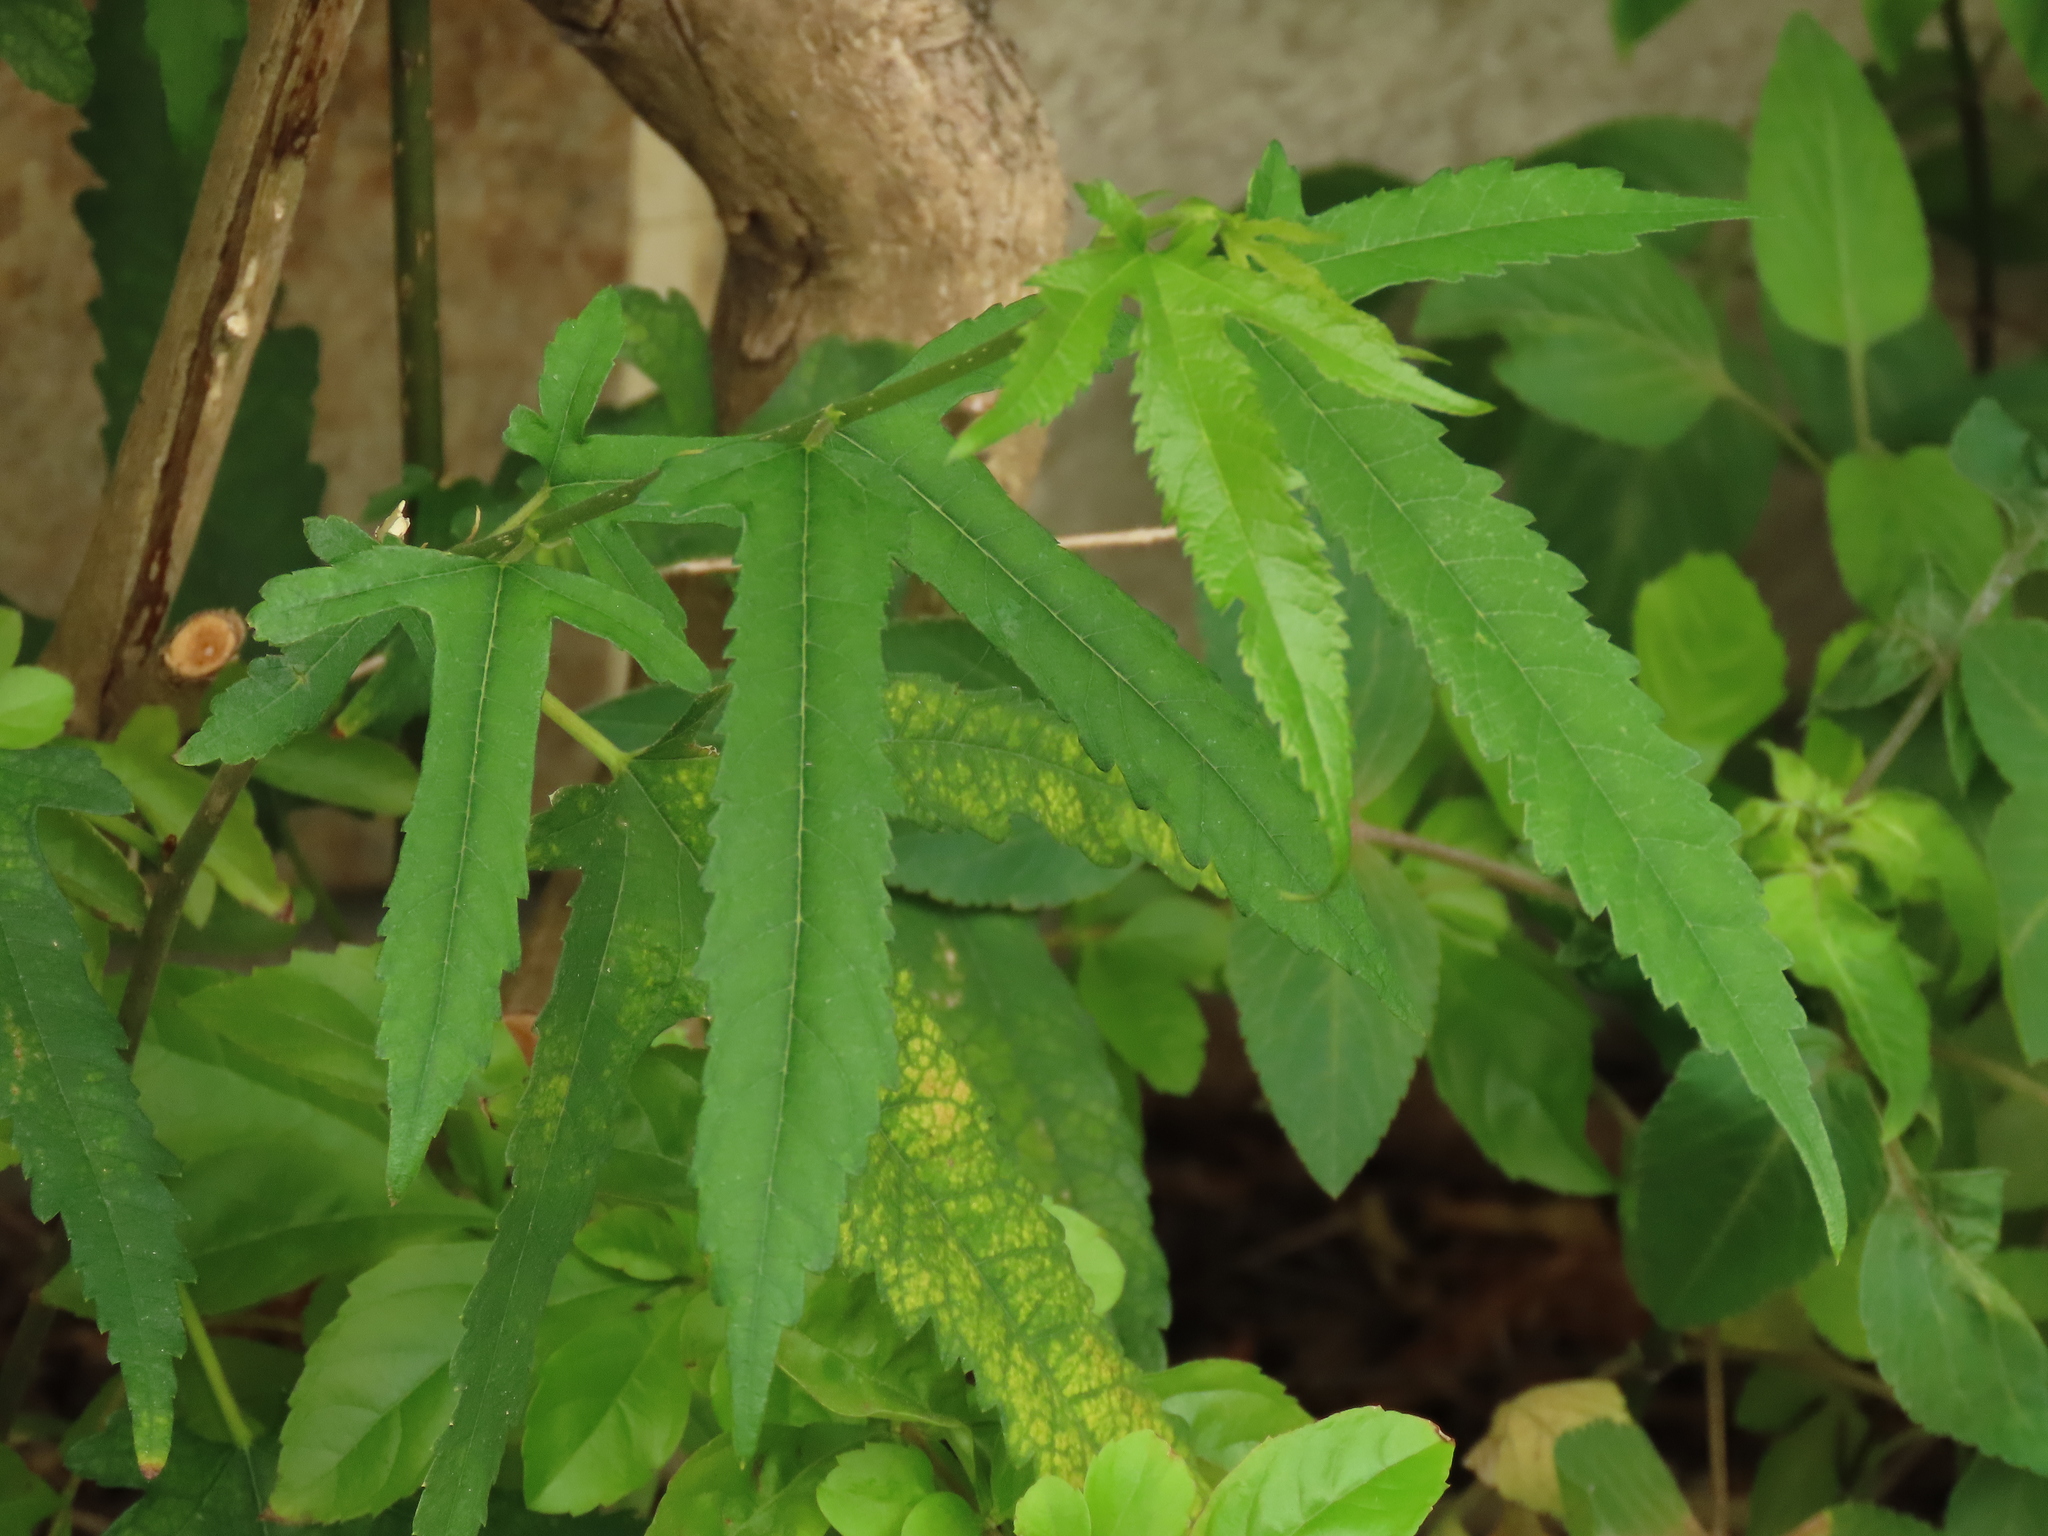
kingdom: Plantae
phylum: Tracheophyta
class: Magnoliopsida
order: Rosales
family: Moraceae
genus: Morus
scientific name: Morus indica
